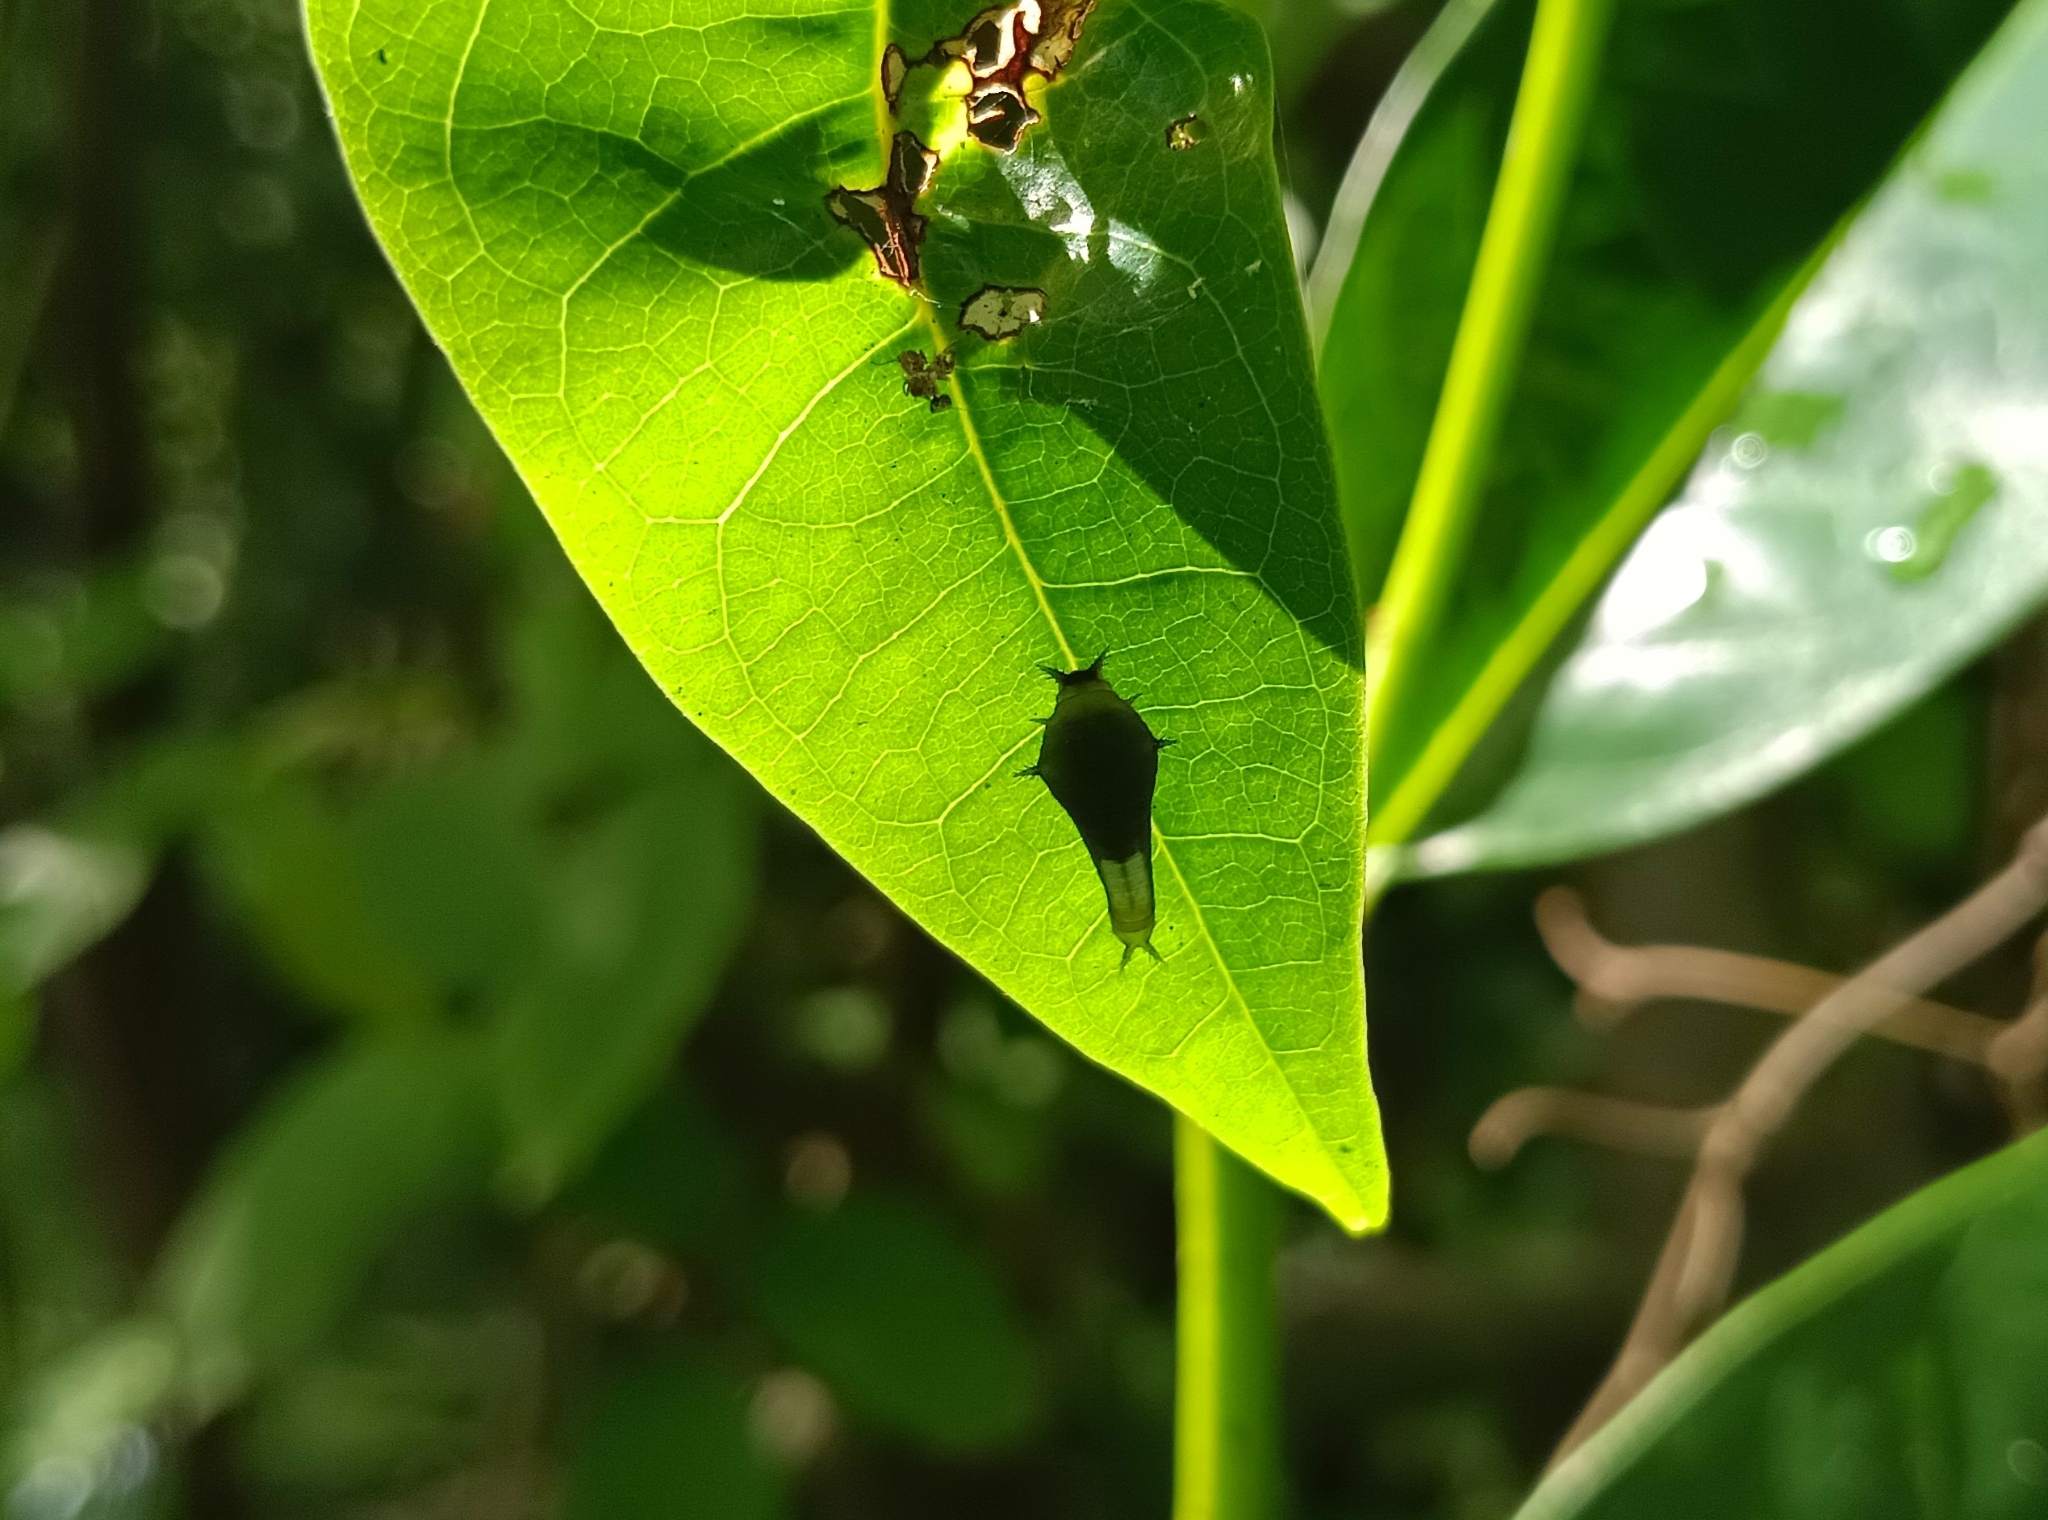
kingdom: Animalia
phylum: Arthropoda
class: Insecta
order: Lepidoptera
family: Papilionidae
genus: Graphium
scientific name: Graphium agamemnon
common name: Tailed jay
